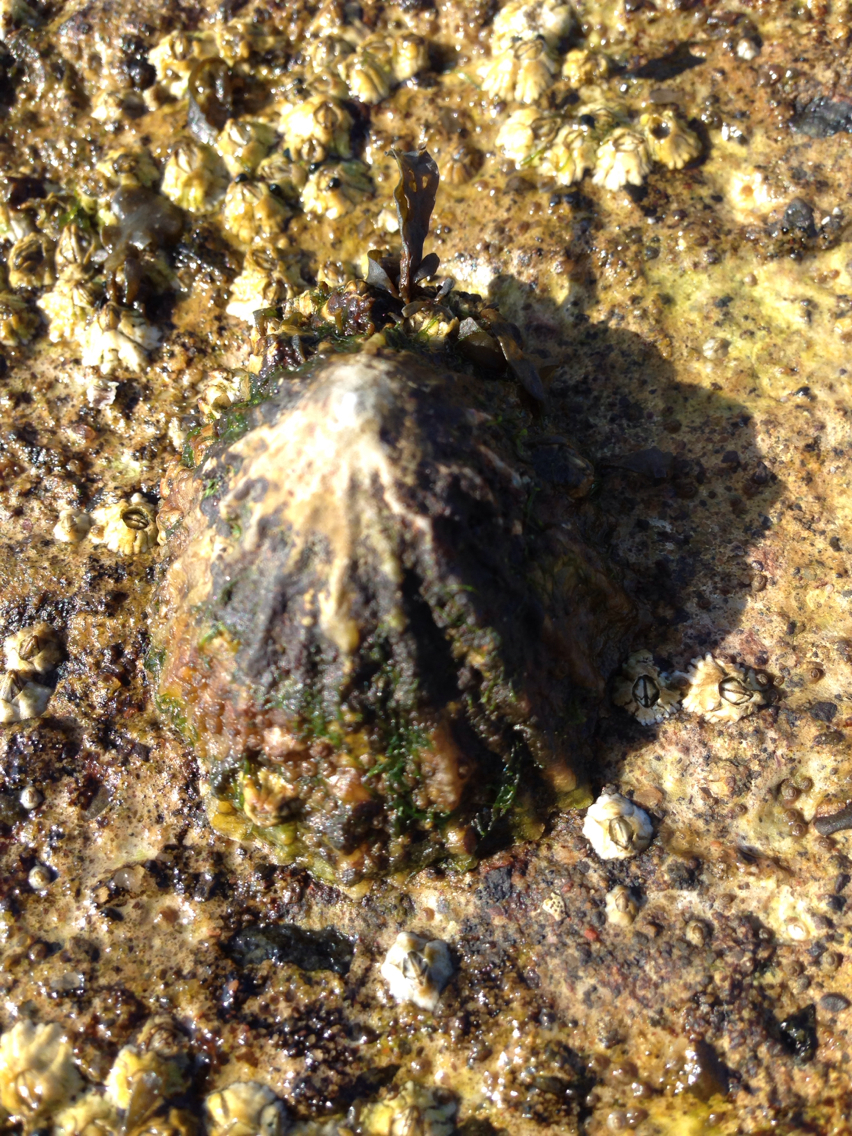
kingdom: Animalia
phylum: Mollusca
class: Gastropoda
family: Patellidae
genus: Patella
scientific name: Patella vulgata
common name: Common limpet
